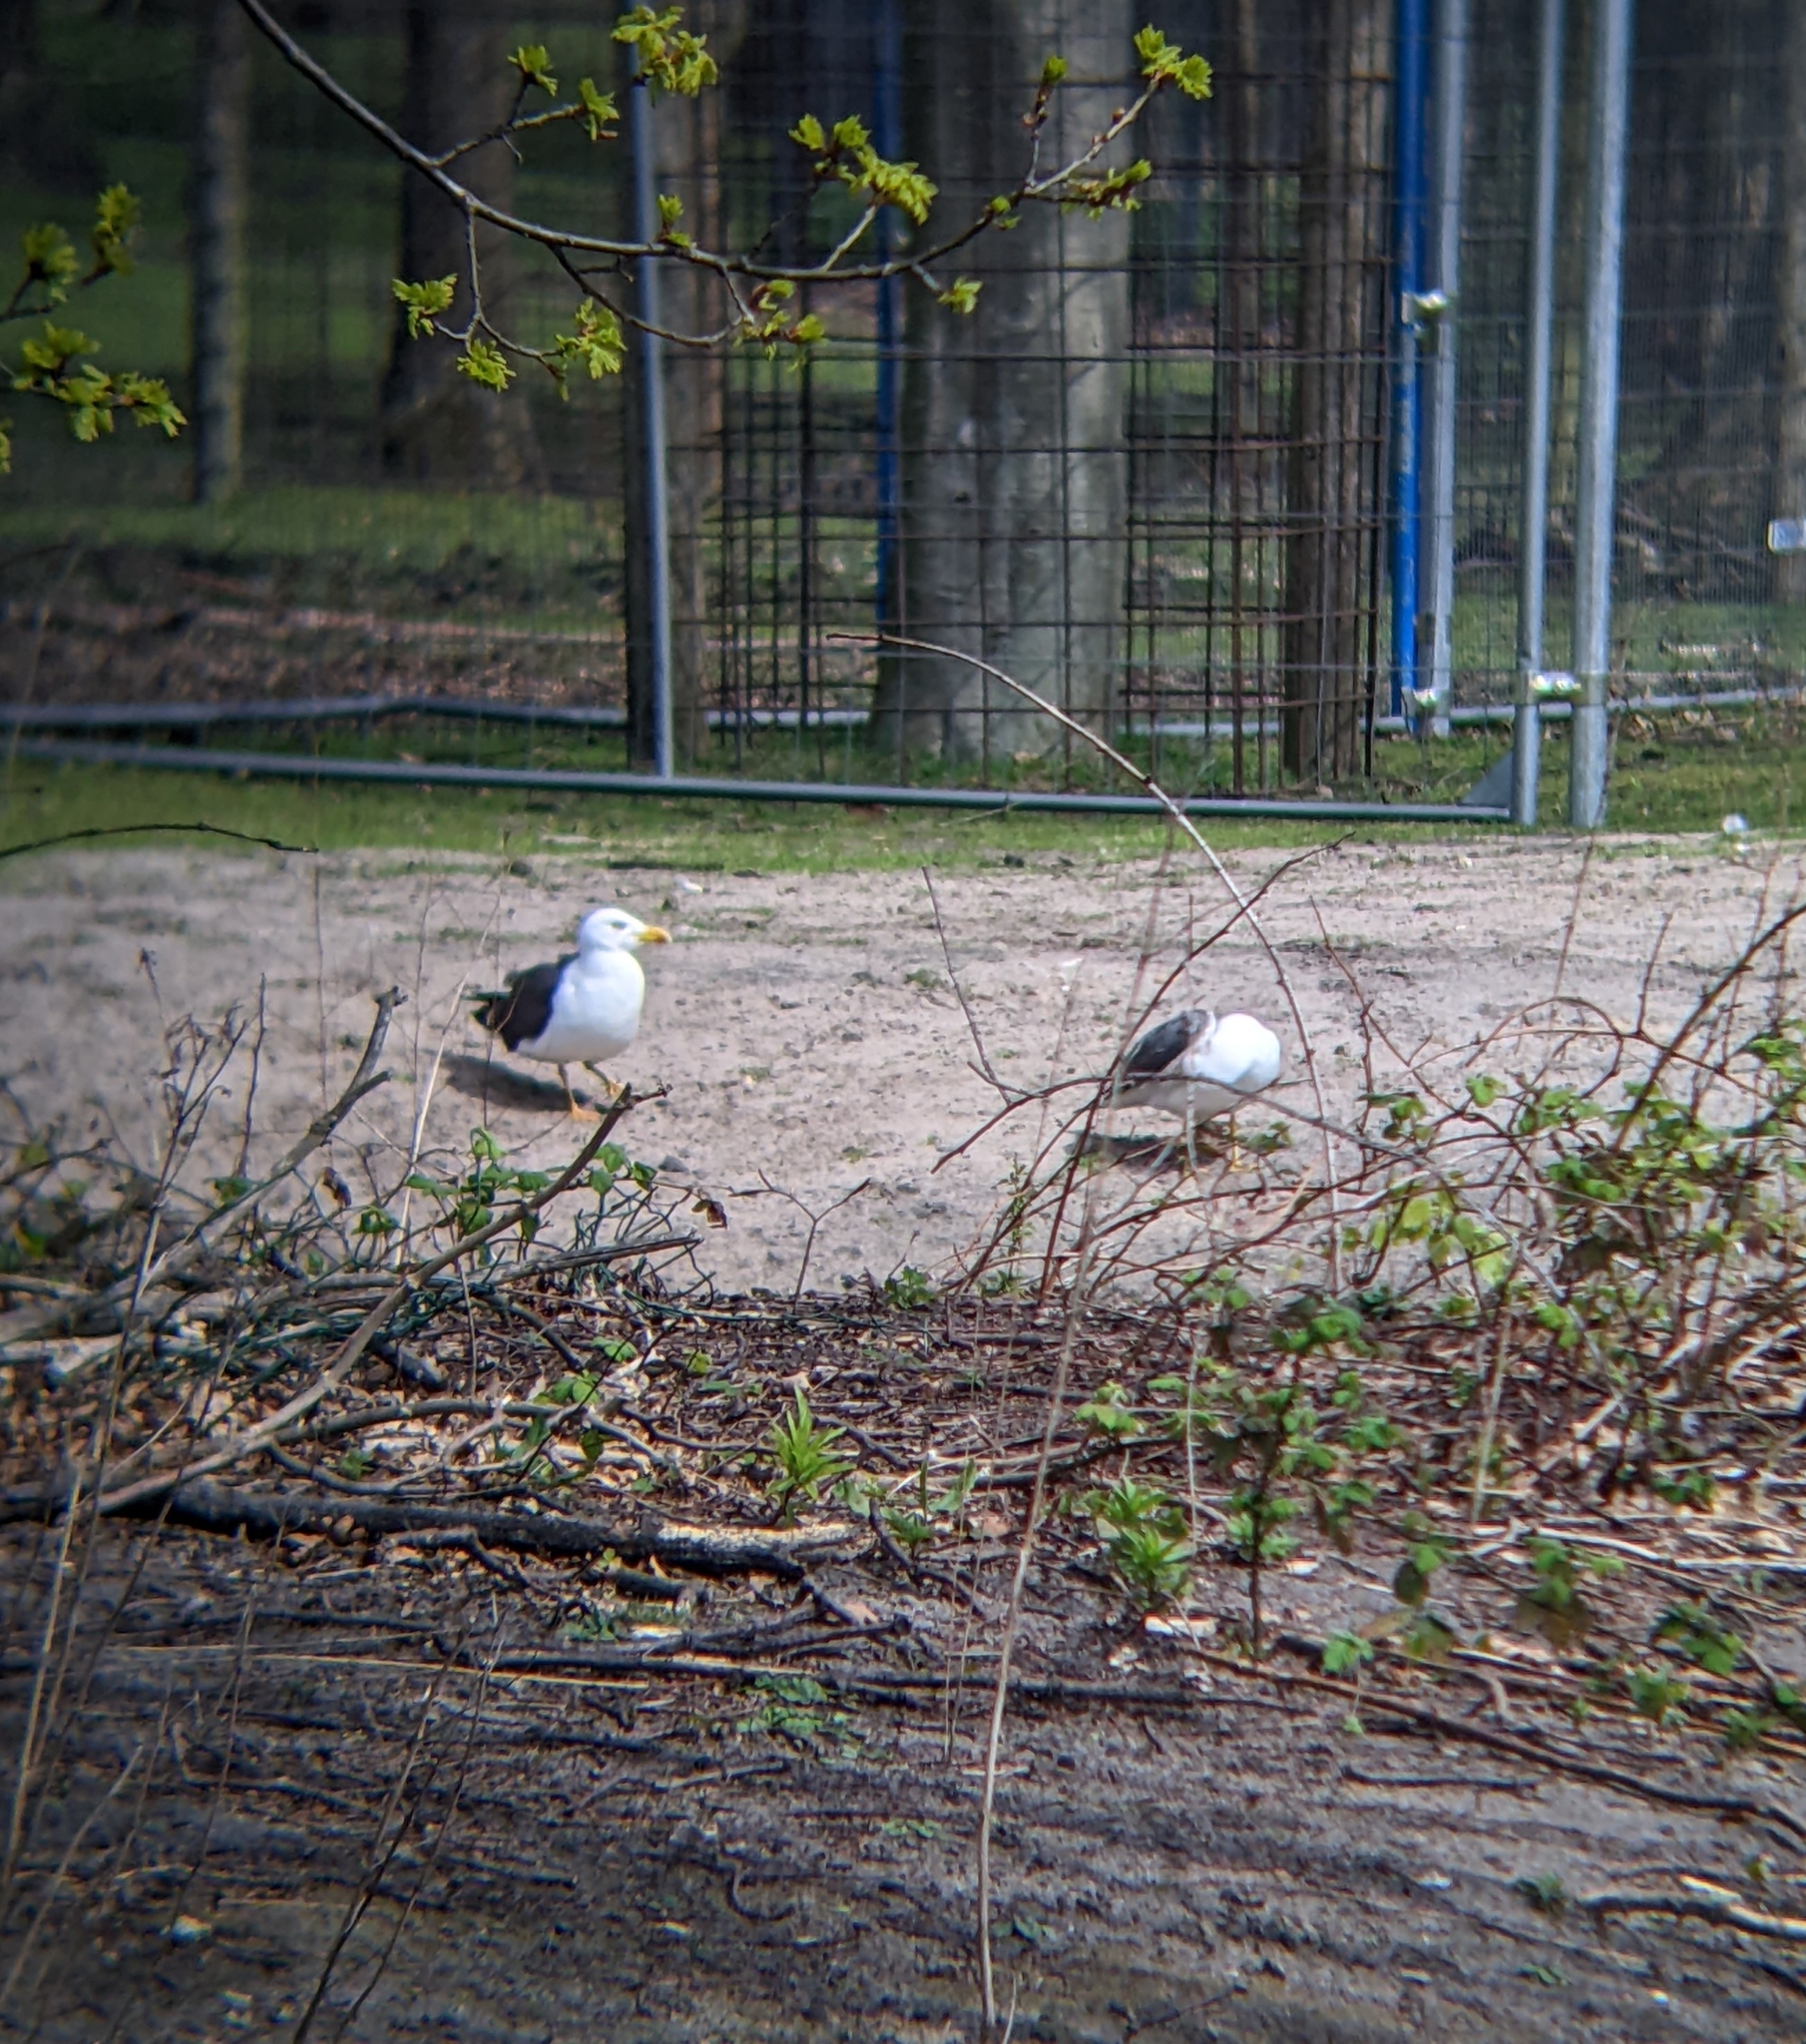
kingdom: Animalia
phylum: Chordata
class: Aves
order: Charadriiformes
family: Laridae
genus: Larus
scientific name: Larus fuscus
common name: Lesser black-backed gull
